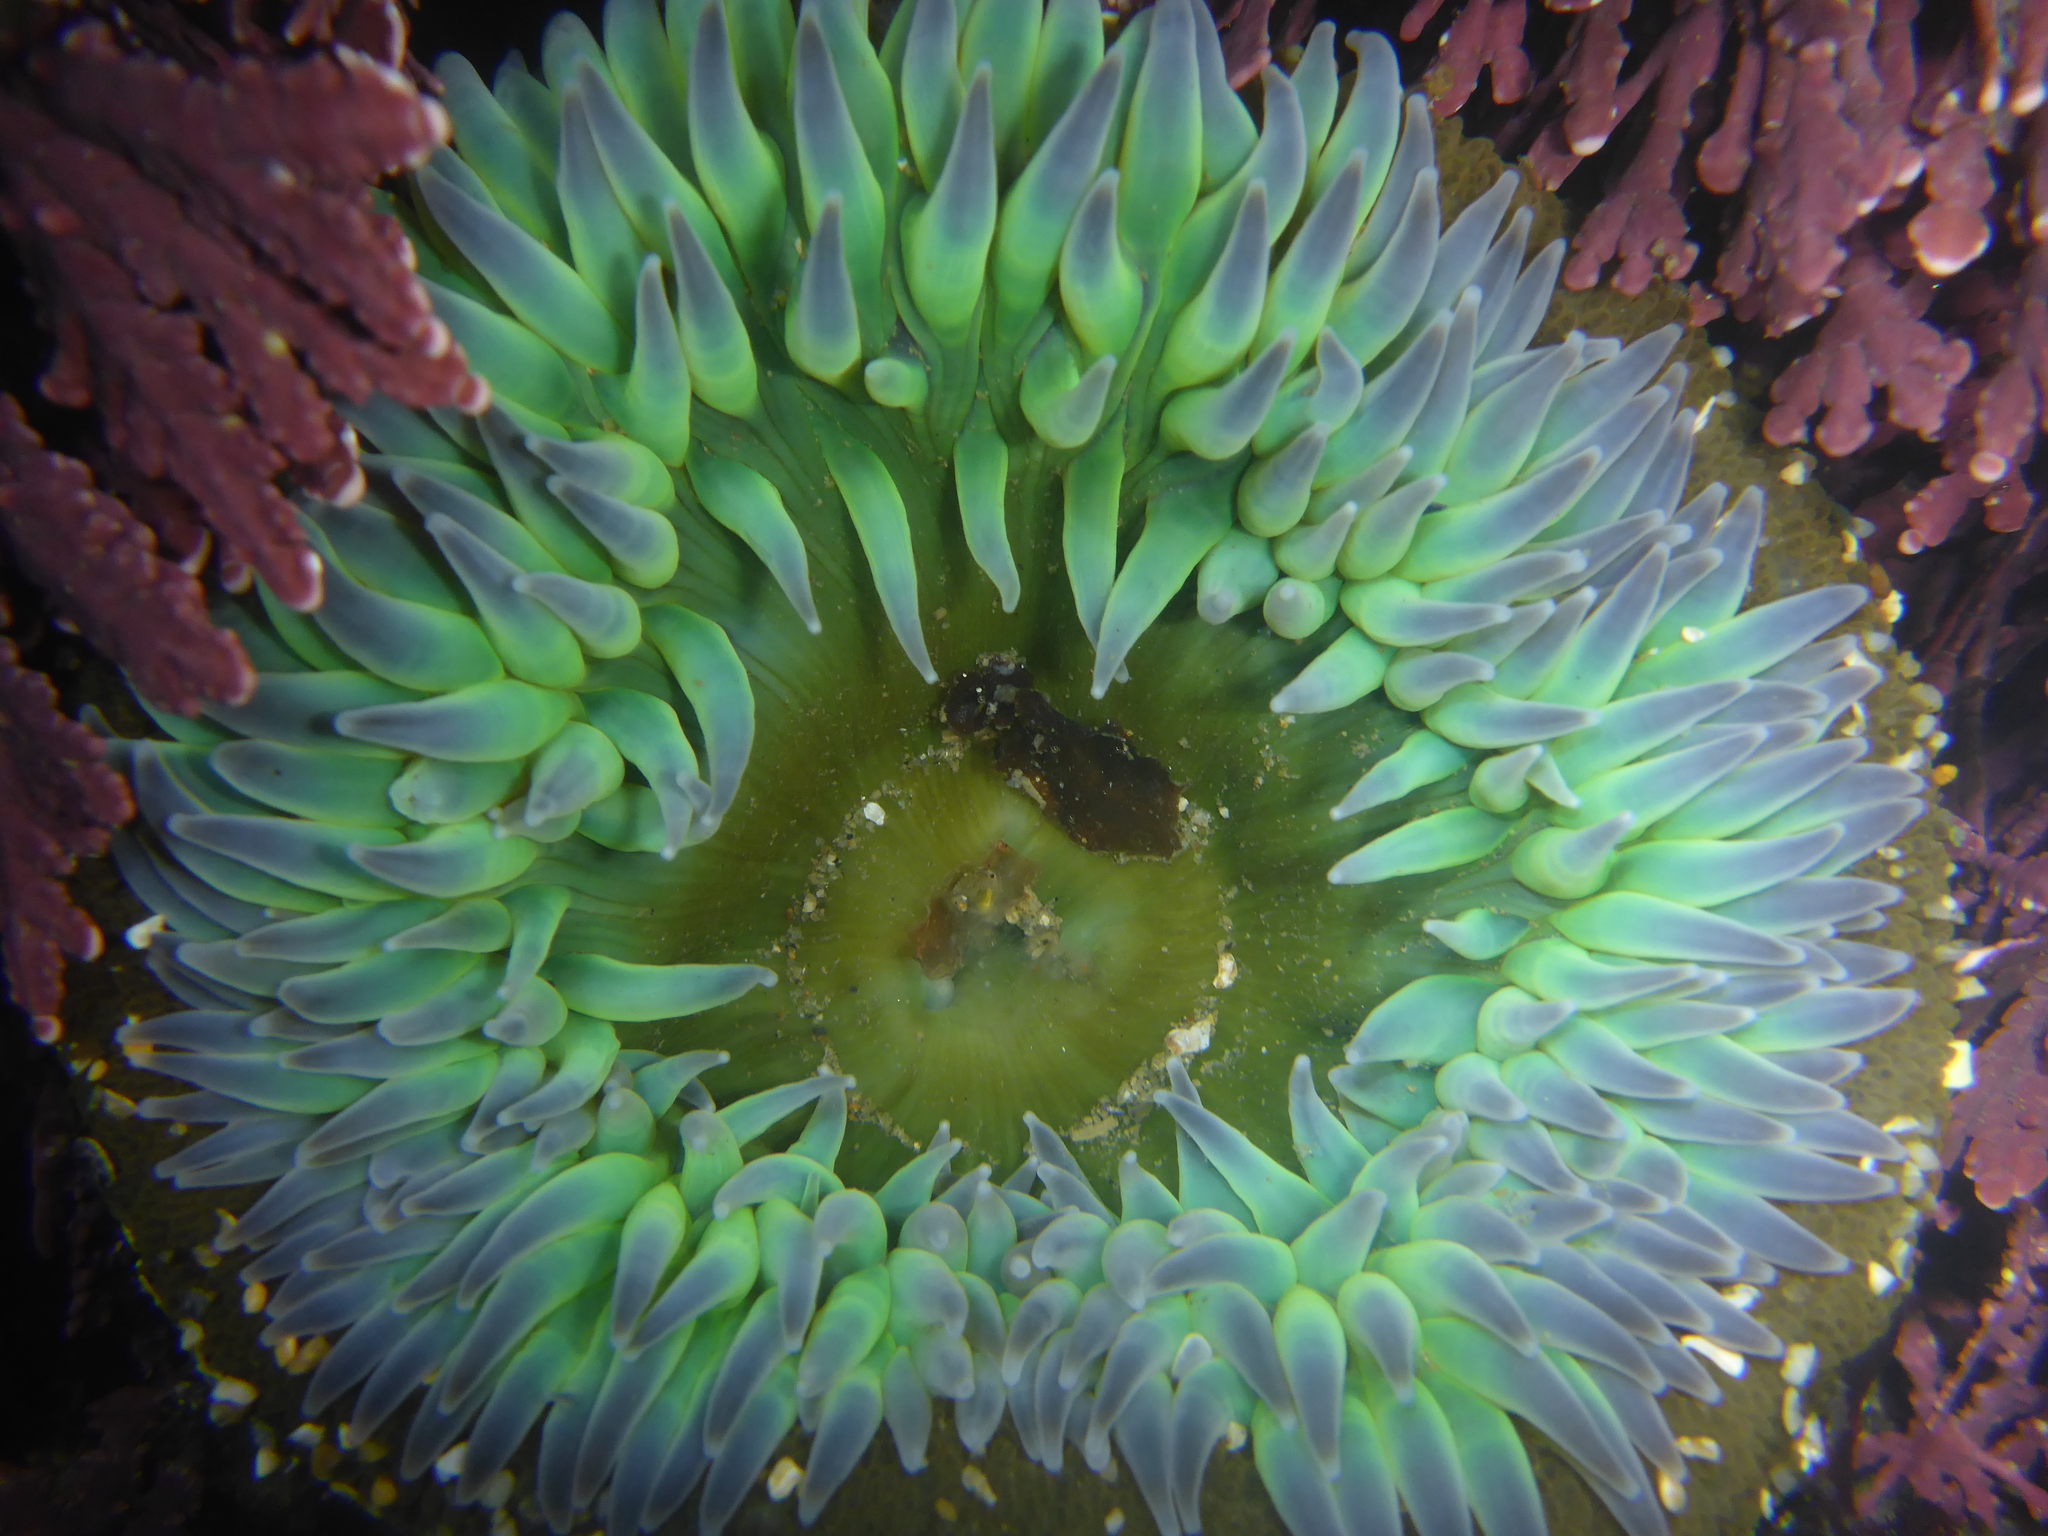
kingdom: Animalia
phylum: Cnidaria
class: Anthozoa
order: Actiniaria
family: Actiniidae
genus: Anthopleura
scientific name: Anthopleura xanthogrammica
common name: Giant green anemone
